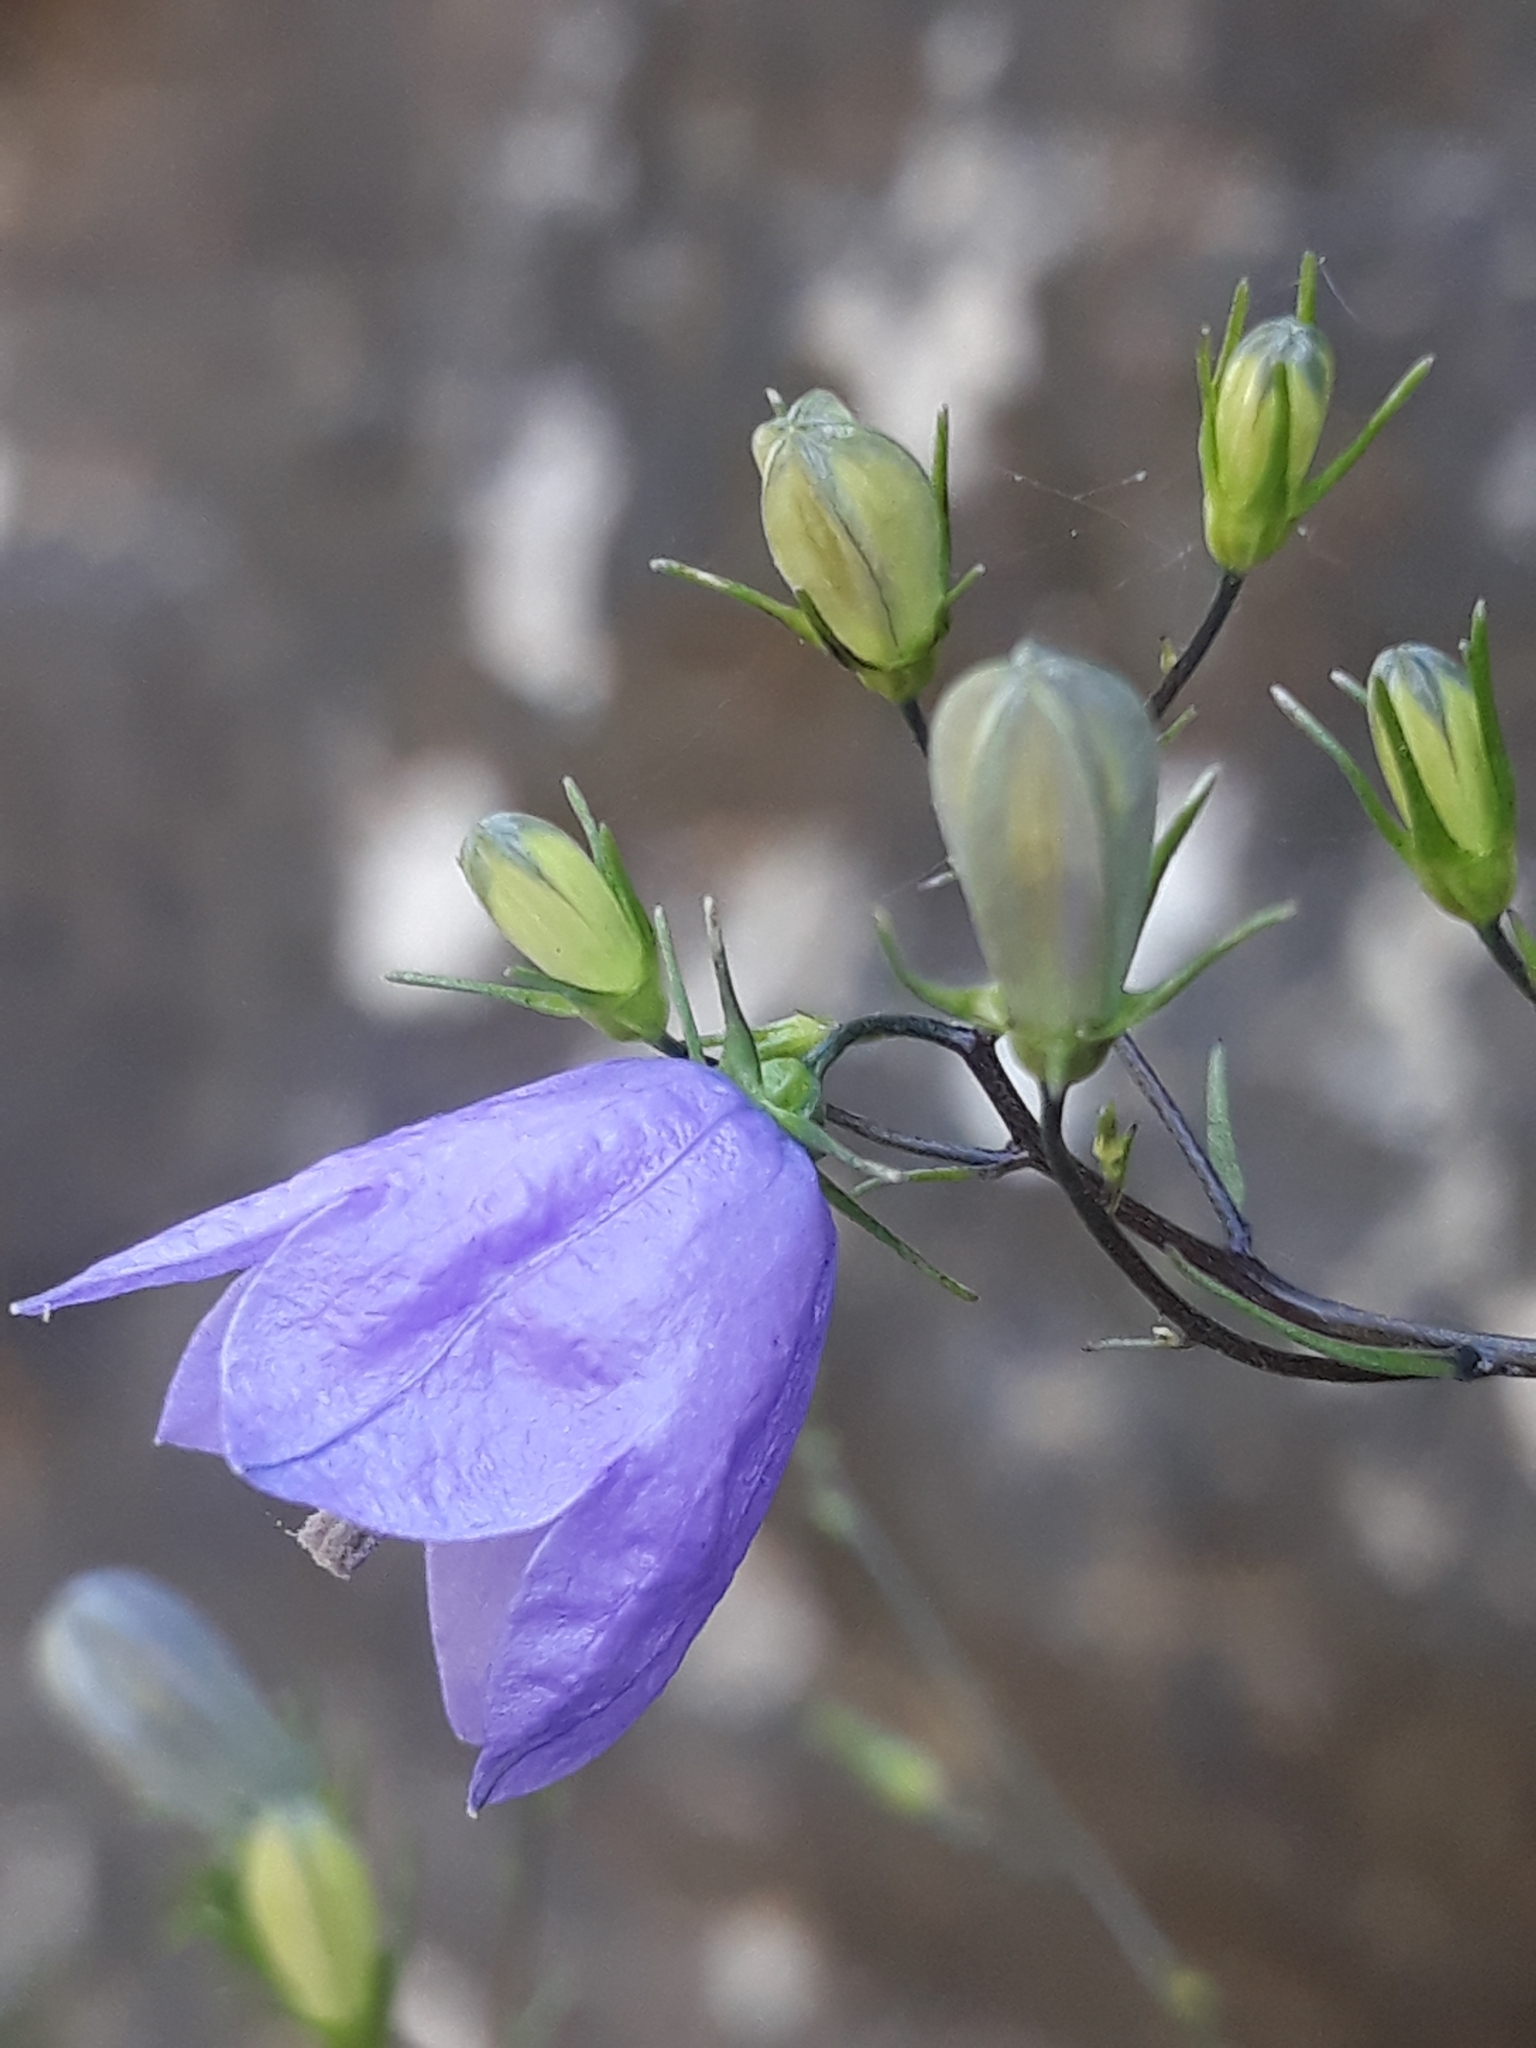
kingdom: Plantae
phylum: Tracheophyta
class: Magnoliopsida
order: Asterales
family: Campanulaceae
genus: Campanula
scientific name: Campanula rotundifolia
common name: Harebell
